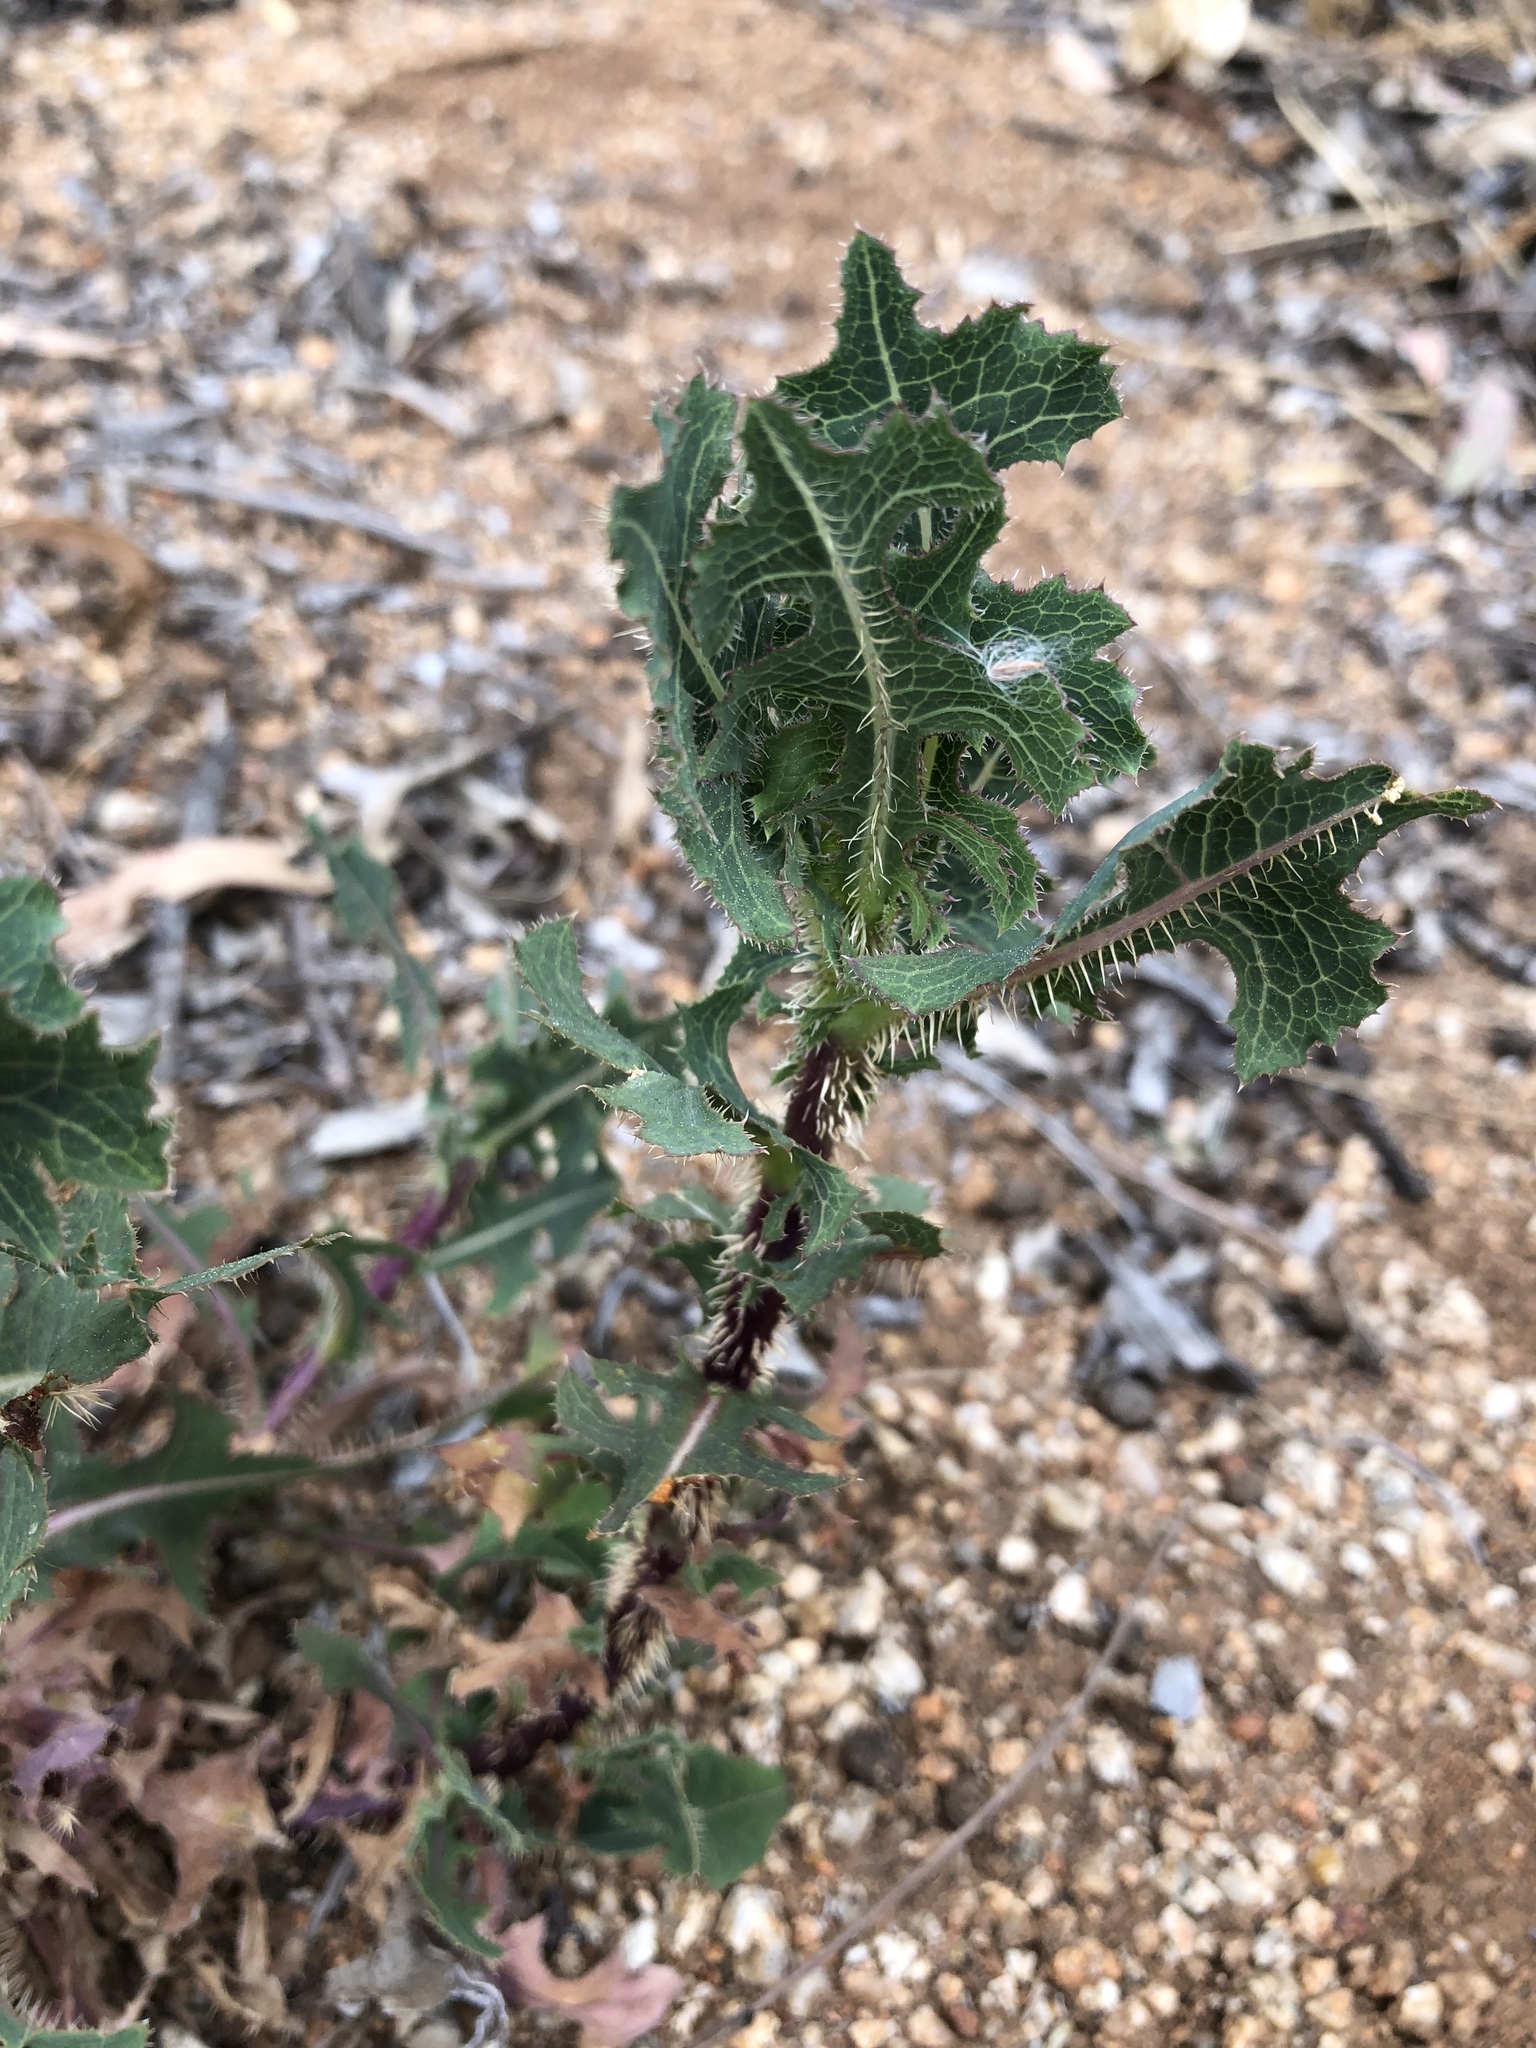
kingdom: Plantae
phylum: Tracheophyta
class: Magnoliopsida
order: Asterales
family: Asteraceae
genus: Lactuca
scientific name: Lactuca serriola
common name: Prickly lettuce
